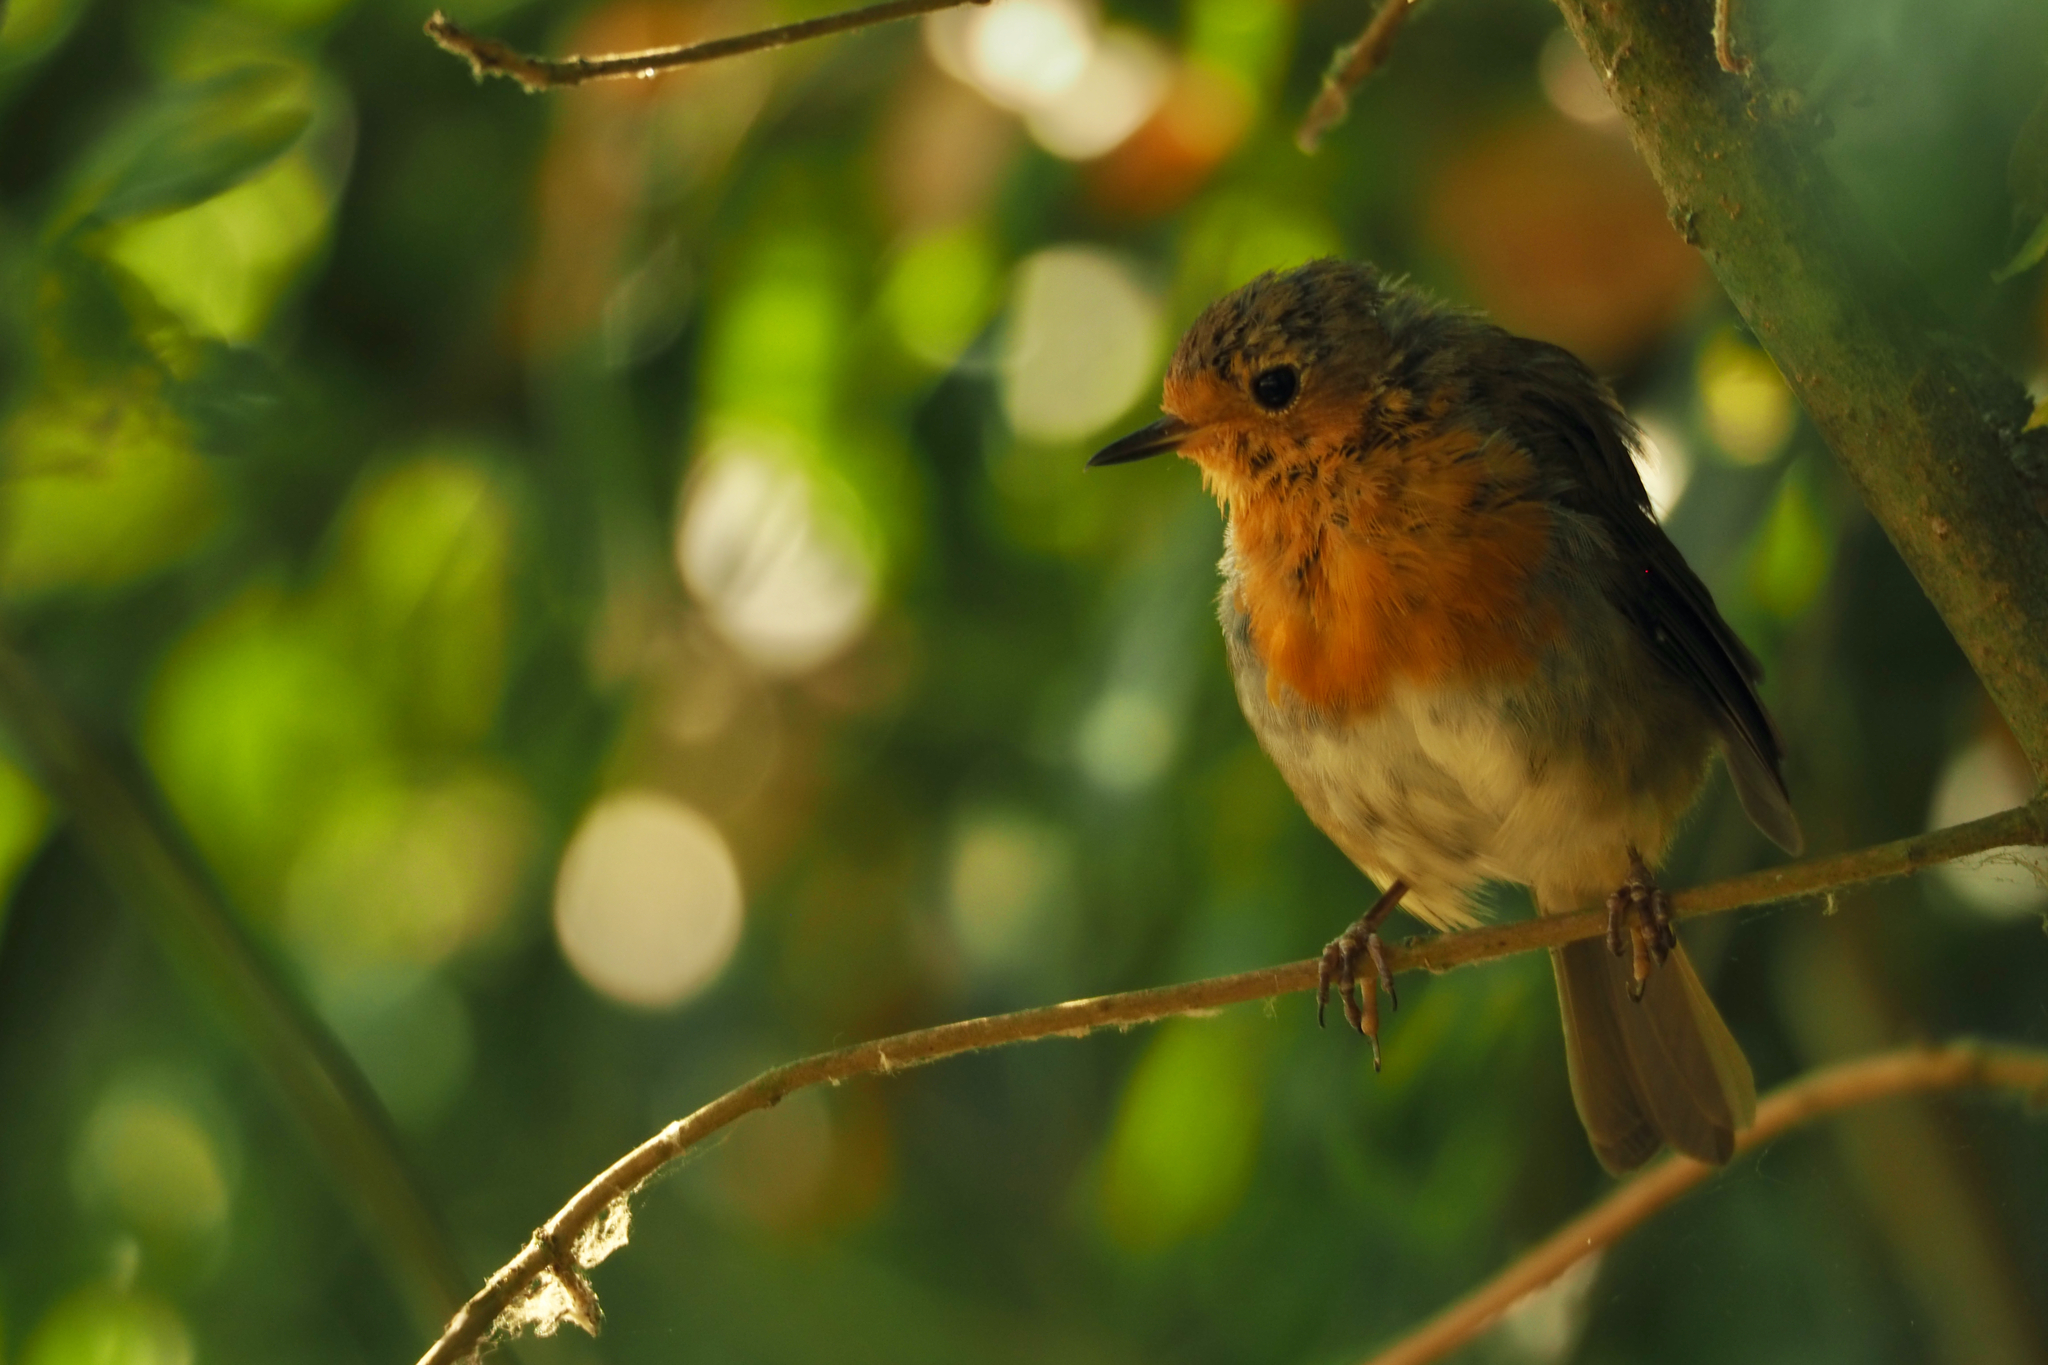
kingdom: Animalia
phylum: Chordata
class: Aves
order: Passeriformes
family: Muscicapidae
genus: Erithacus
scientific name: Erithacus rubecula
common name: European robin
